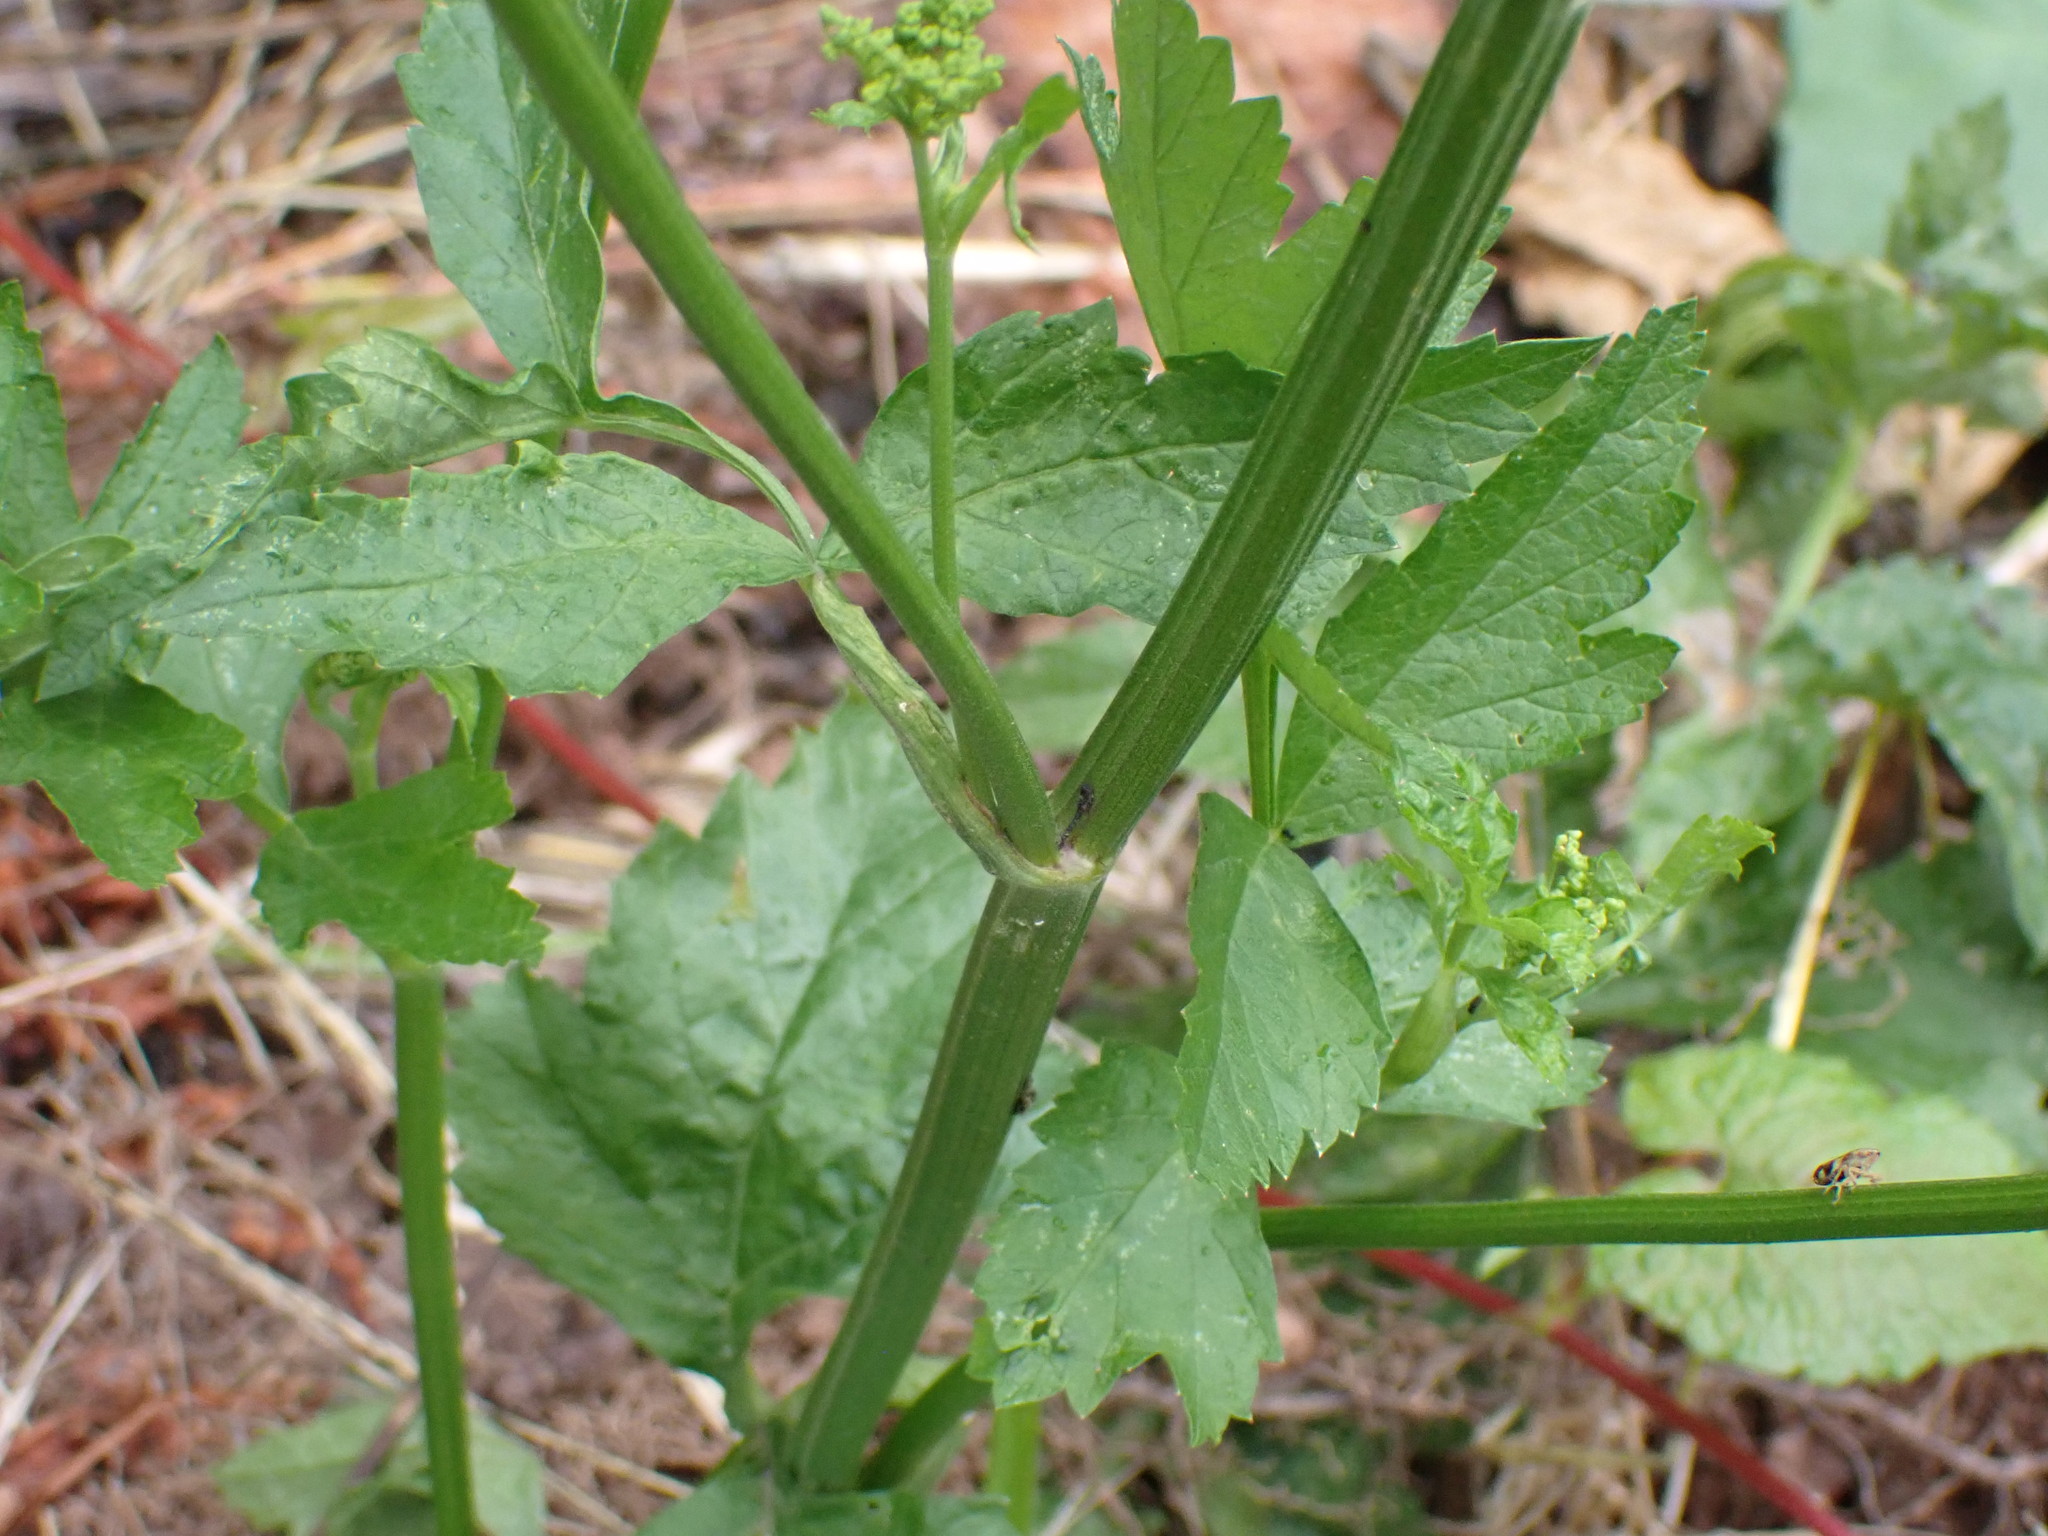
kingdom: Plantae
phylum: Tracheophyta
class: Magnoliopsida
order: Apiales
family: Apiaceae
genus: Pastinaca
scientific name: Pastinaca sativa
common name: Wild parsnip
